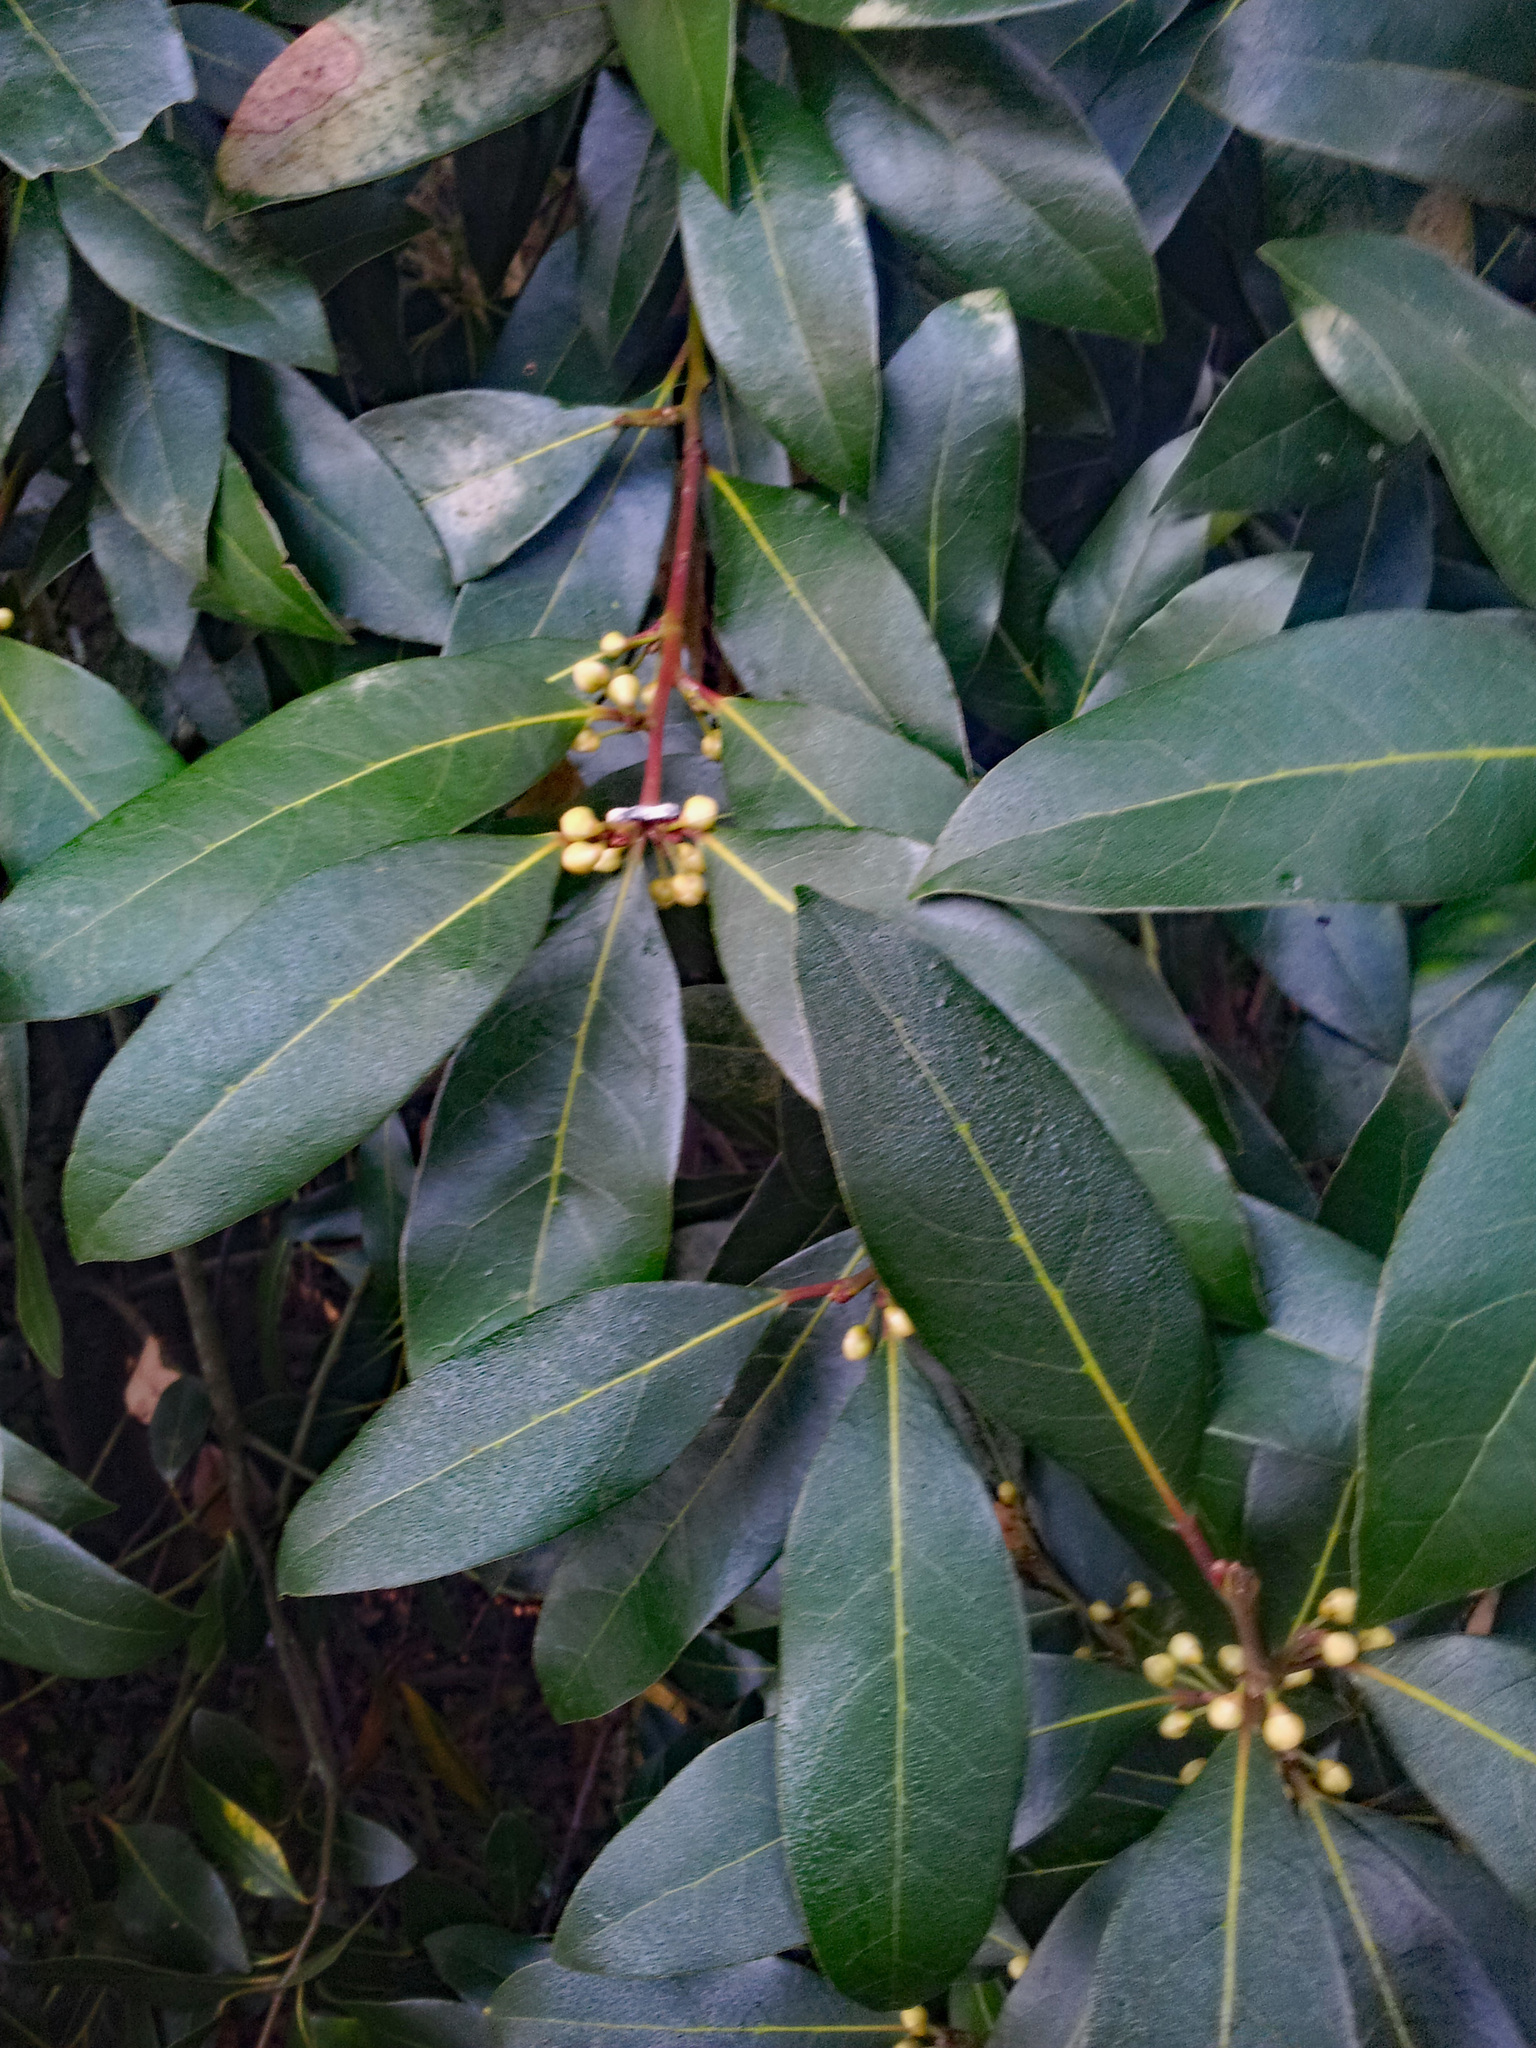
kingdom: Plantae
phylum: Tracheophyta
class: Magnoliopsida
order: Laurales
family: Lauraceae
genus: Laurus
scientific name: Laurus nobilis
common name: Bay
